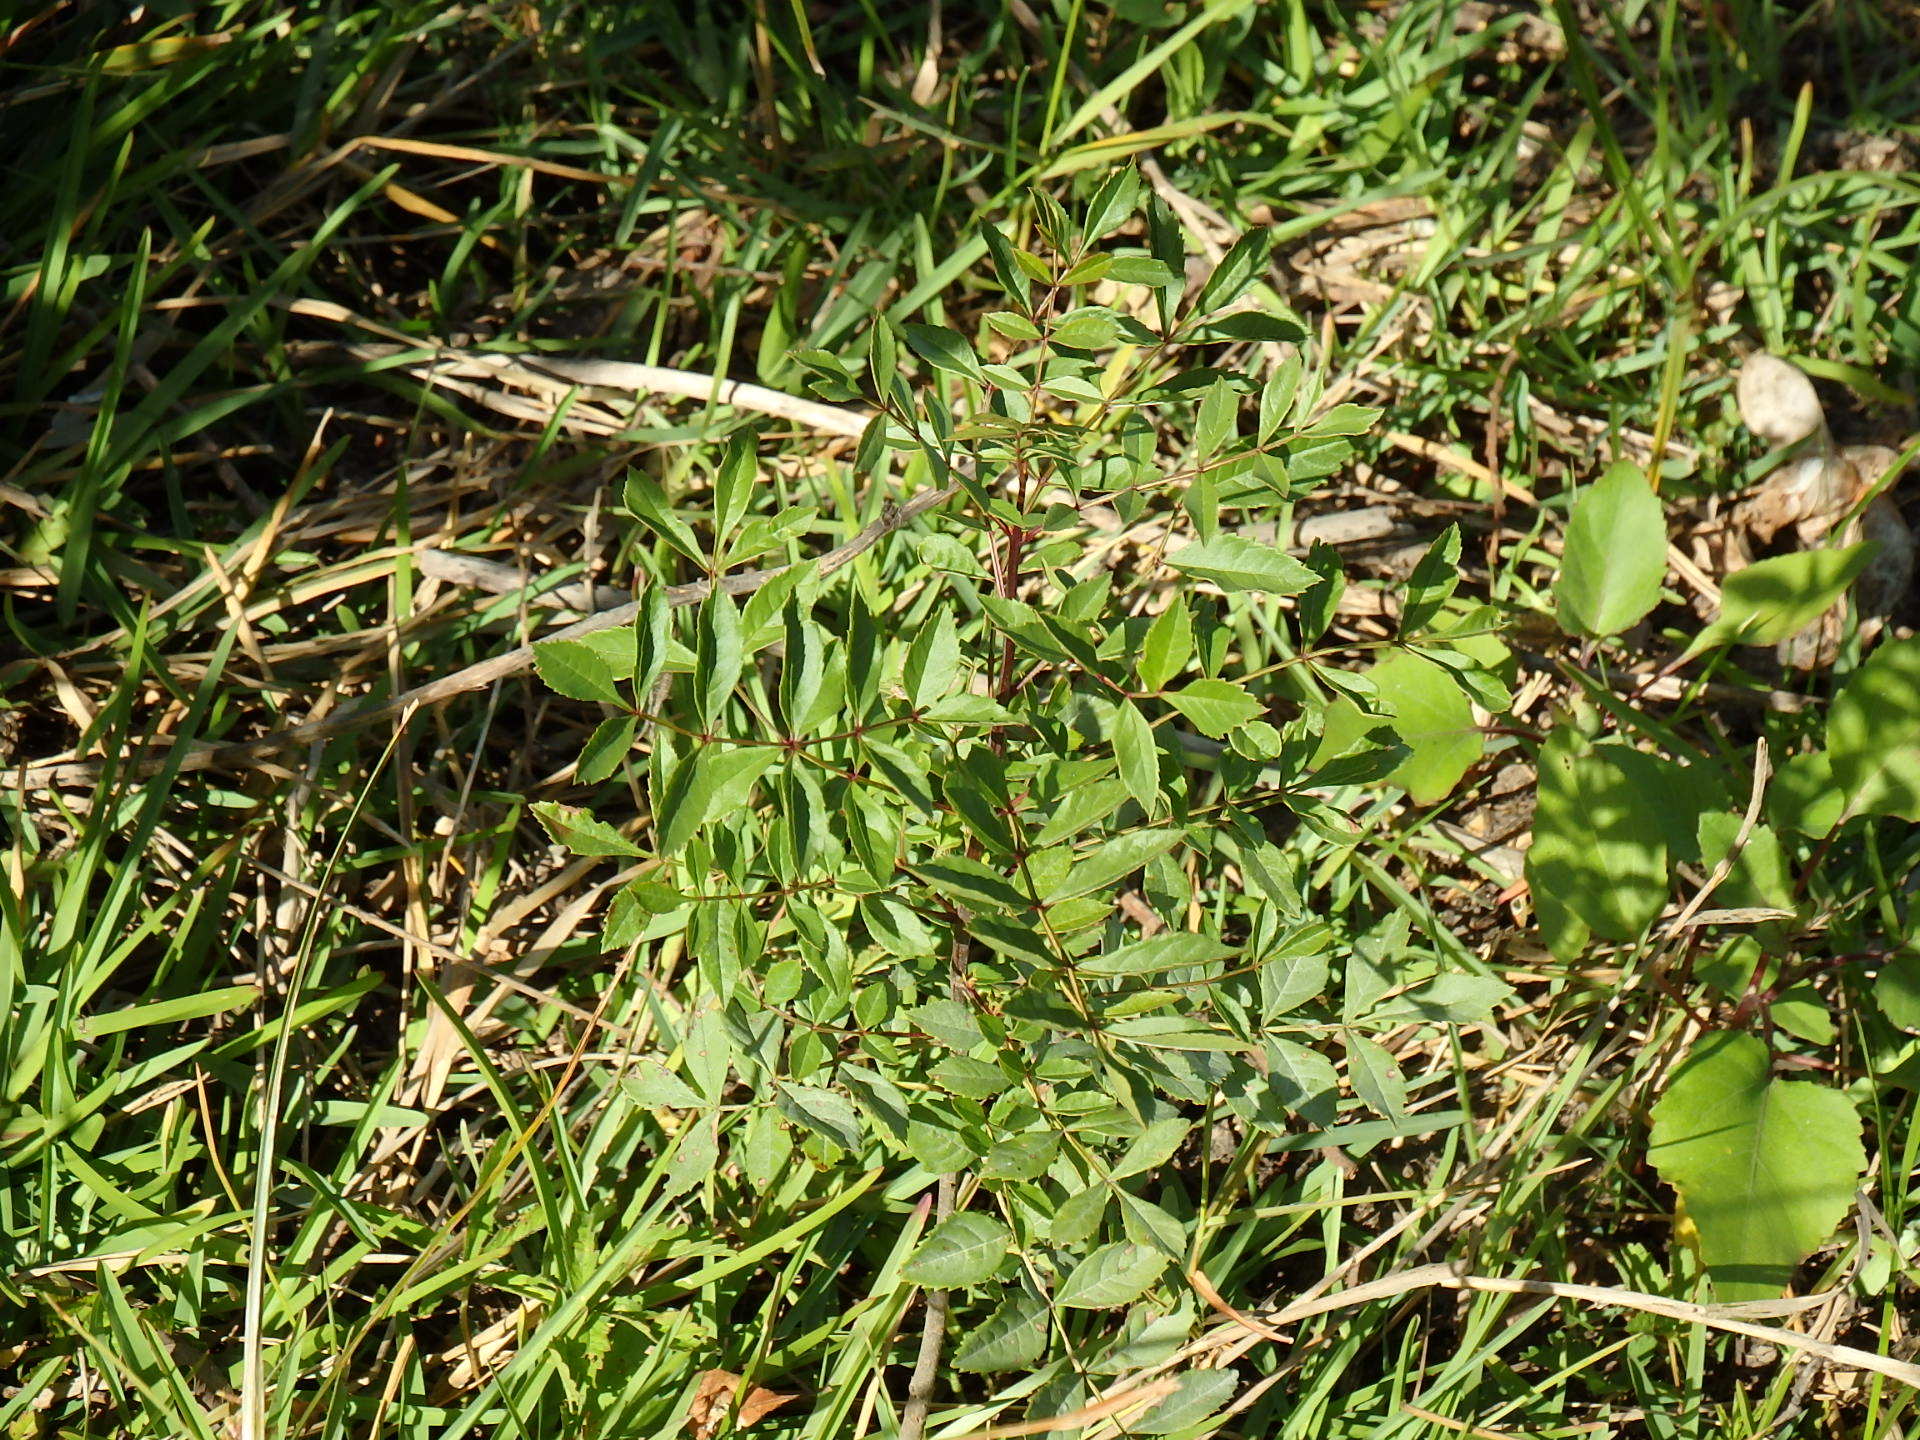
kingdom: Plantae
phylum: Tracheophyta
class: Magnoliopsida
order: Lamiales
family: Oleaceae
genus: Fraxinus
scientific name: Fraxinus angustifolia
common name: Narrow-leafed ash
